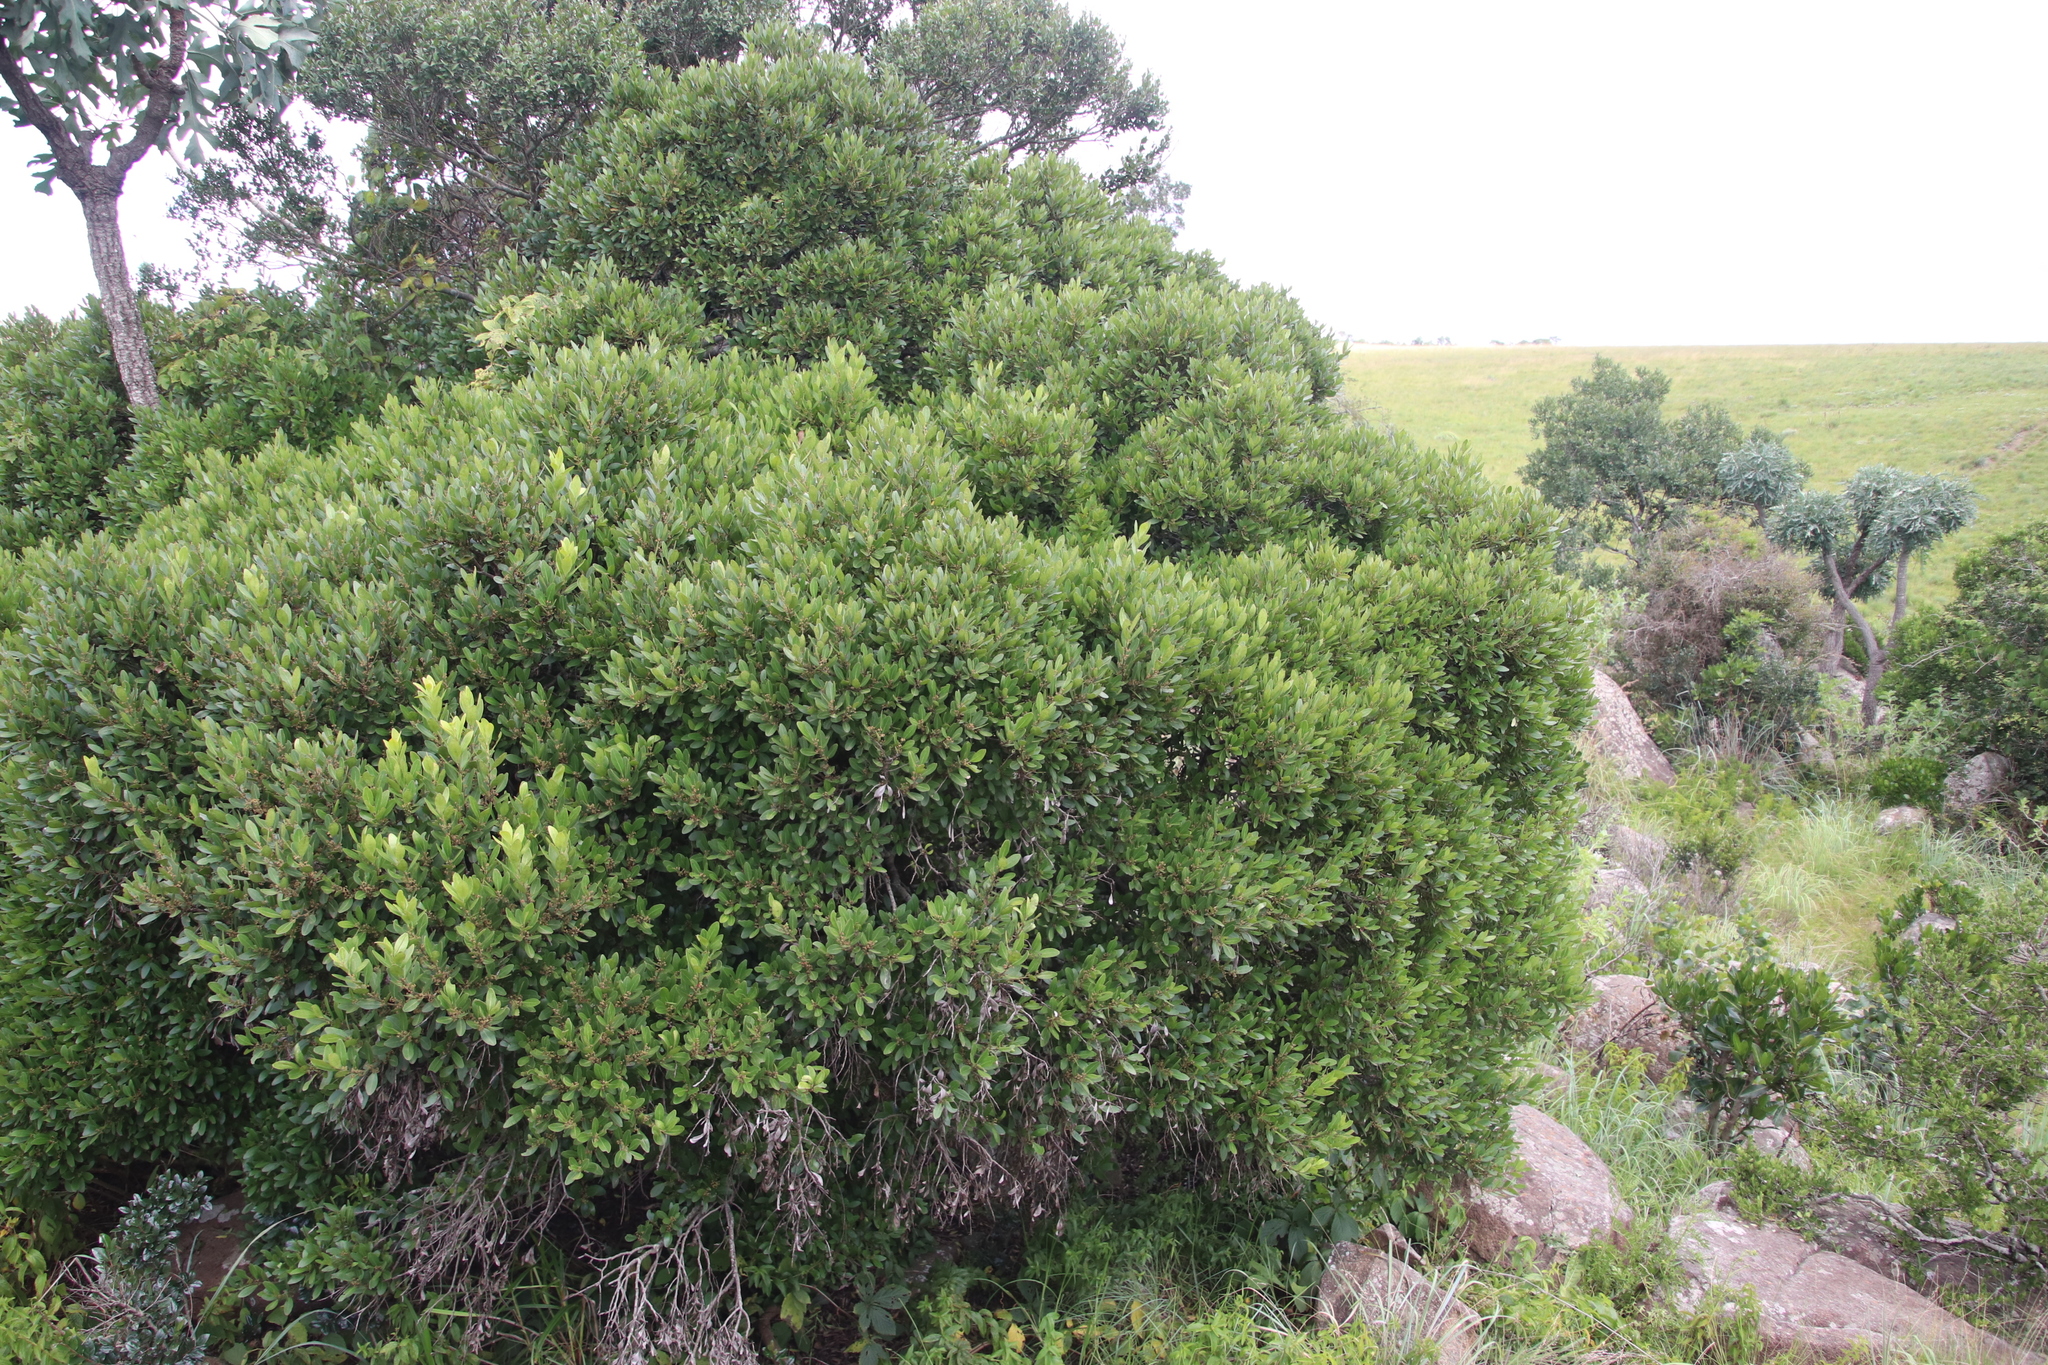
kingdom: Plantae
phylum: Tracheophyta
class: Magnoliopsida
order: Celastrales
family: Celastraceae
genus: Pterocelastrus
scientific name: Pterocelastrus echinatus
